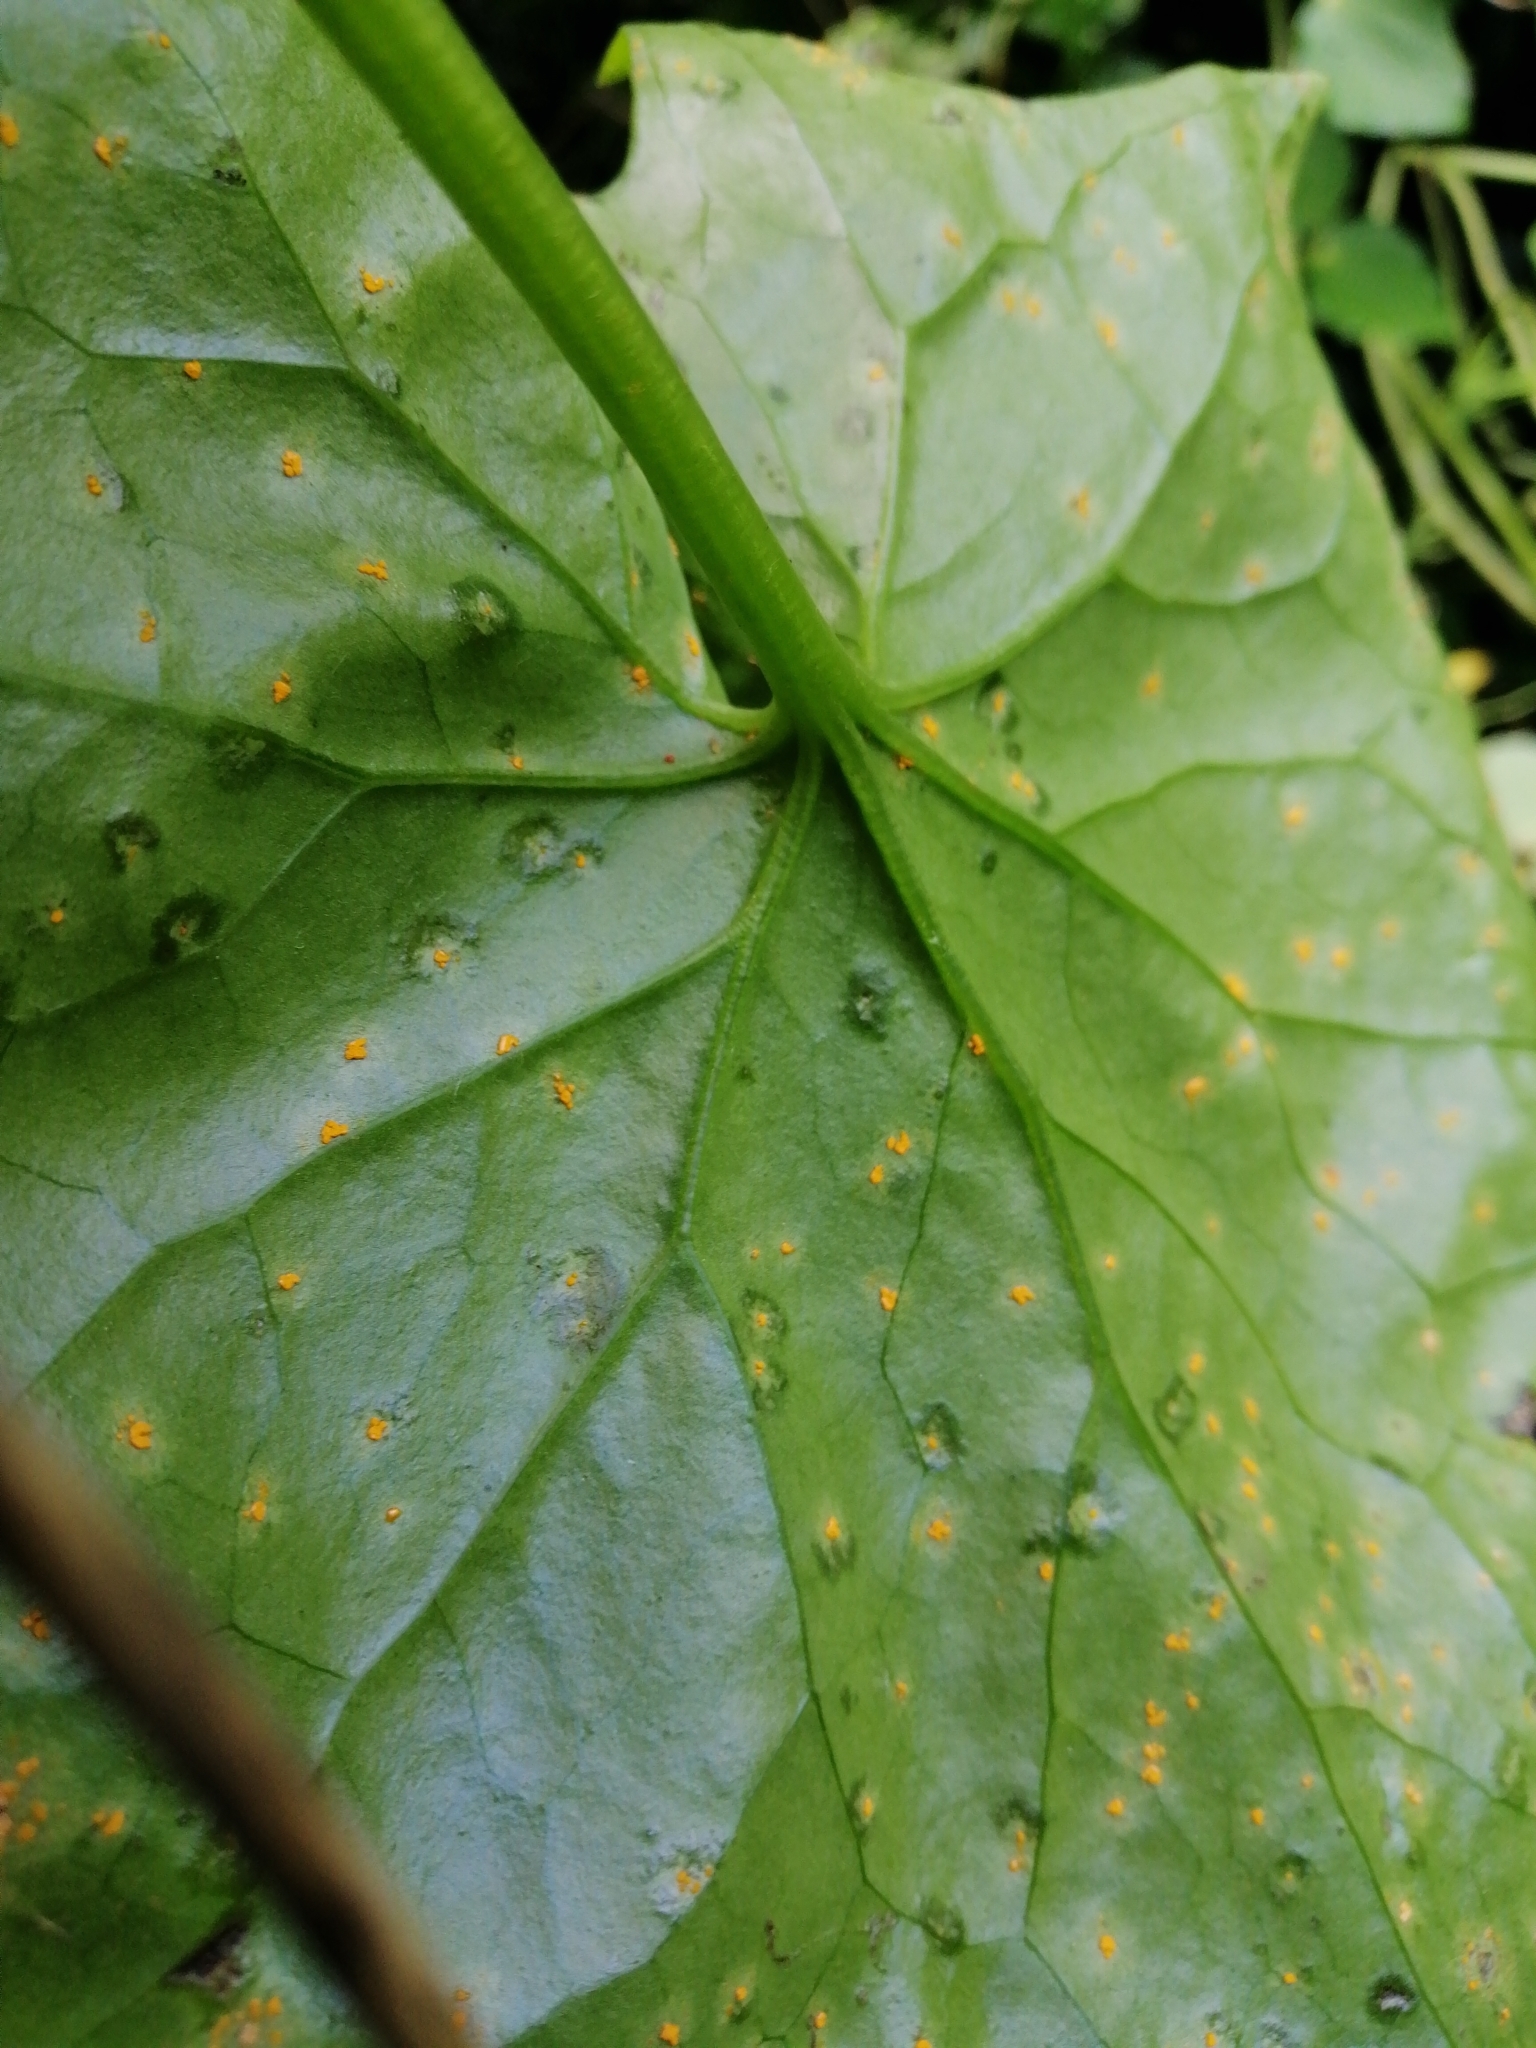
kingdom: Fungi
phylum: Basidiomycota
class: Pucciniomycetes
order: Pucciniales
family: Coleosporiaceae
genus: Coleosporium
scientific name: Coleosporium tussilaginis
